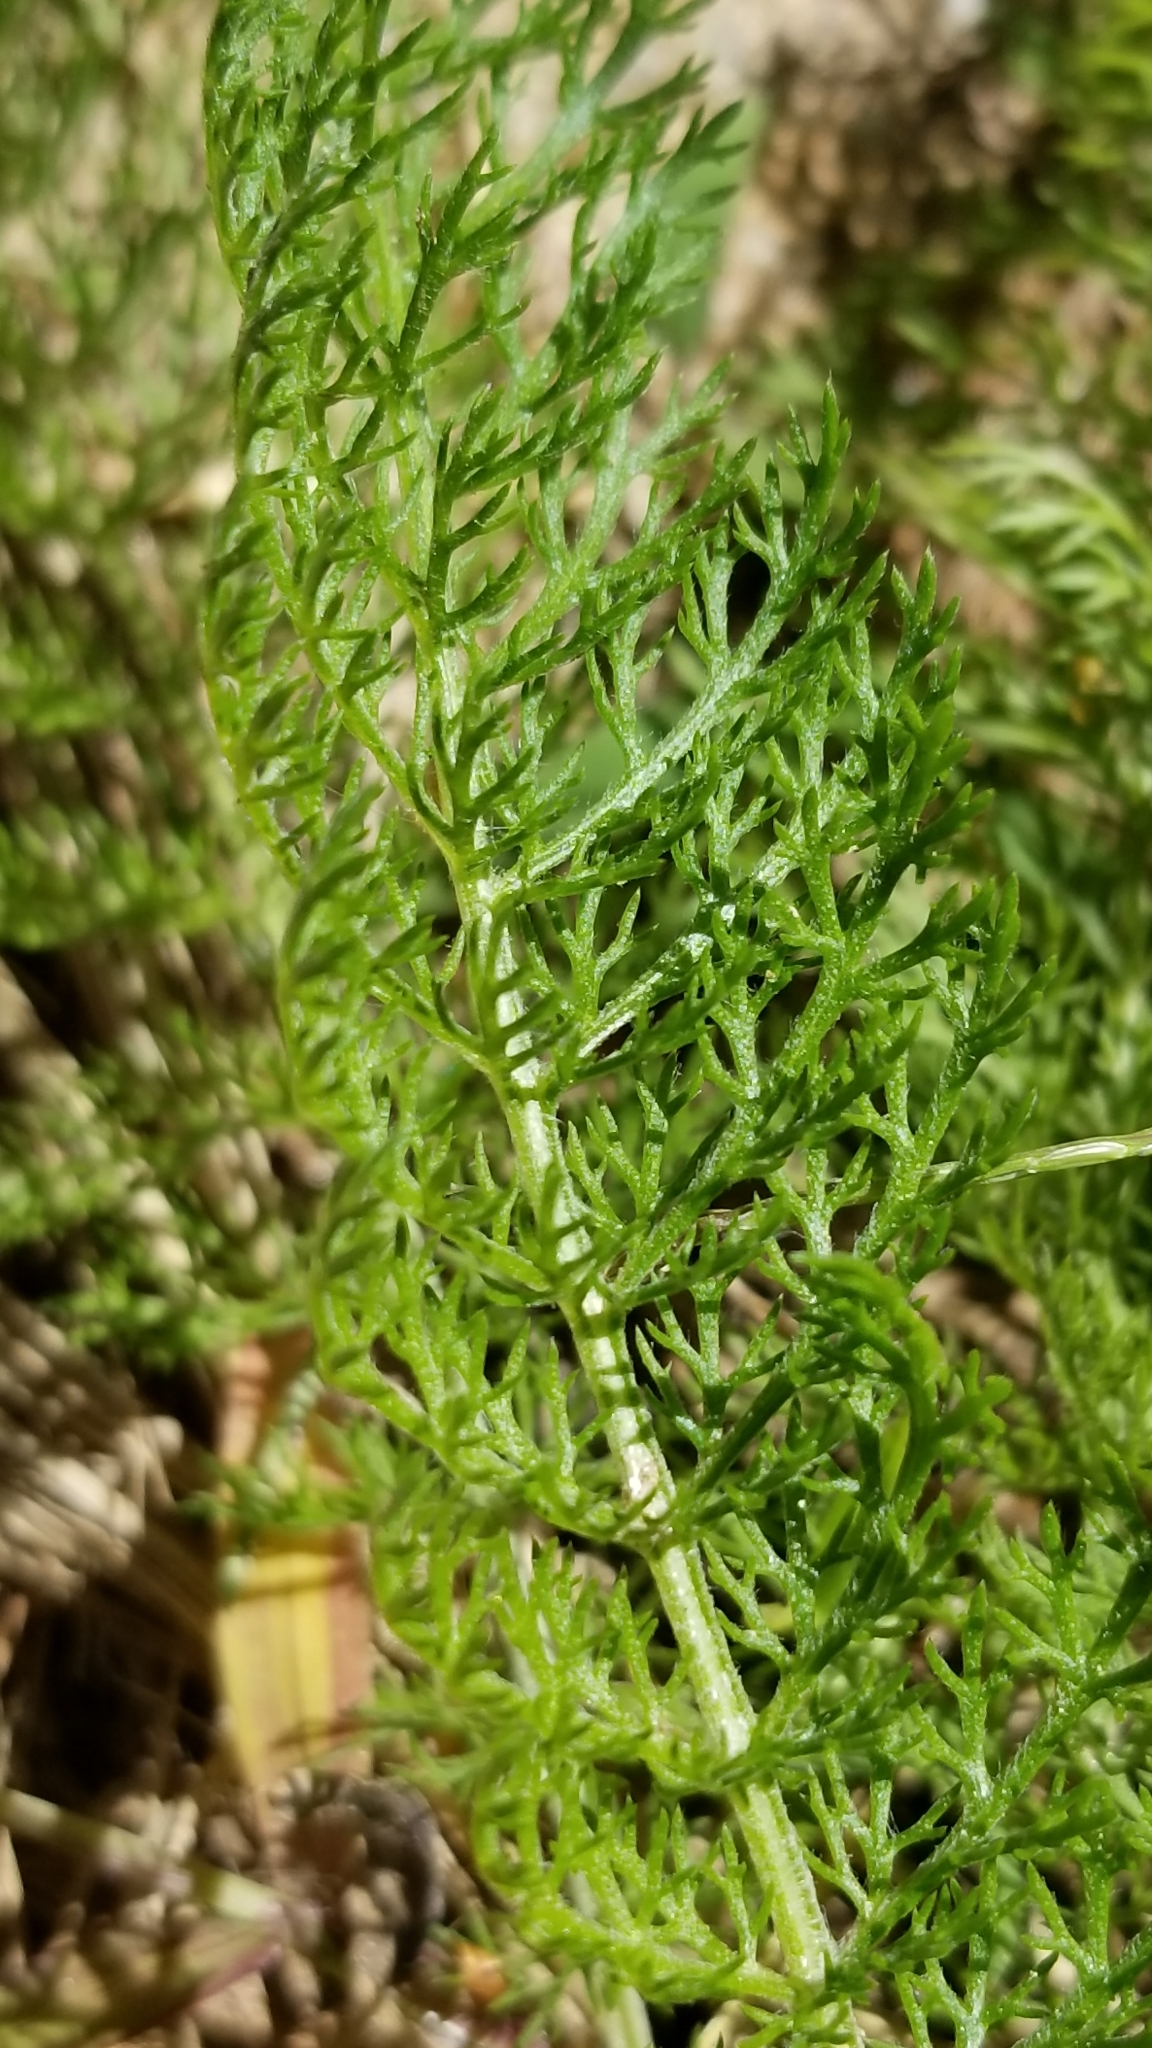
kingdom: Plantae
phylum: Tracheophyta
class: Magnoliopsida
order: Asterales
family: Asteraceae
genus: Achillea
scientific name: Achillea millefolium
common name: Yarrow
